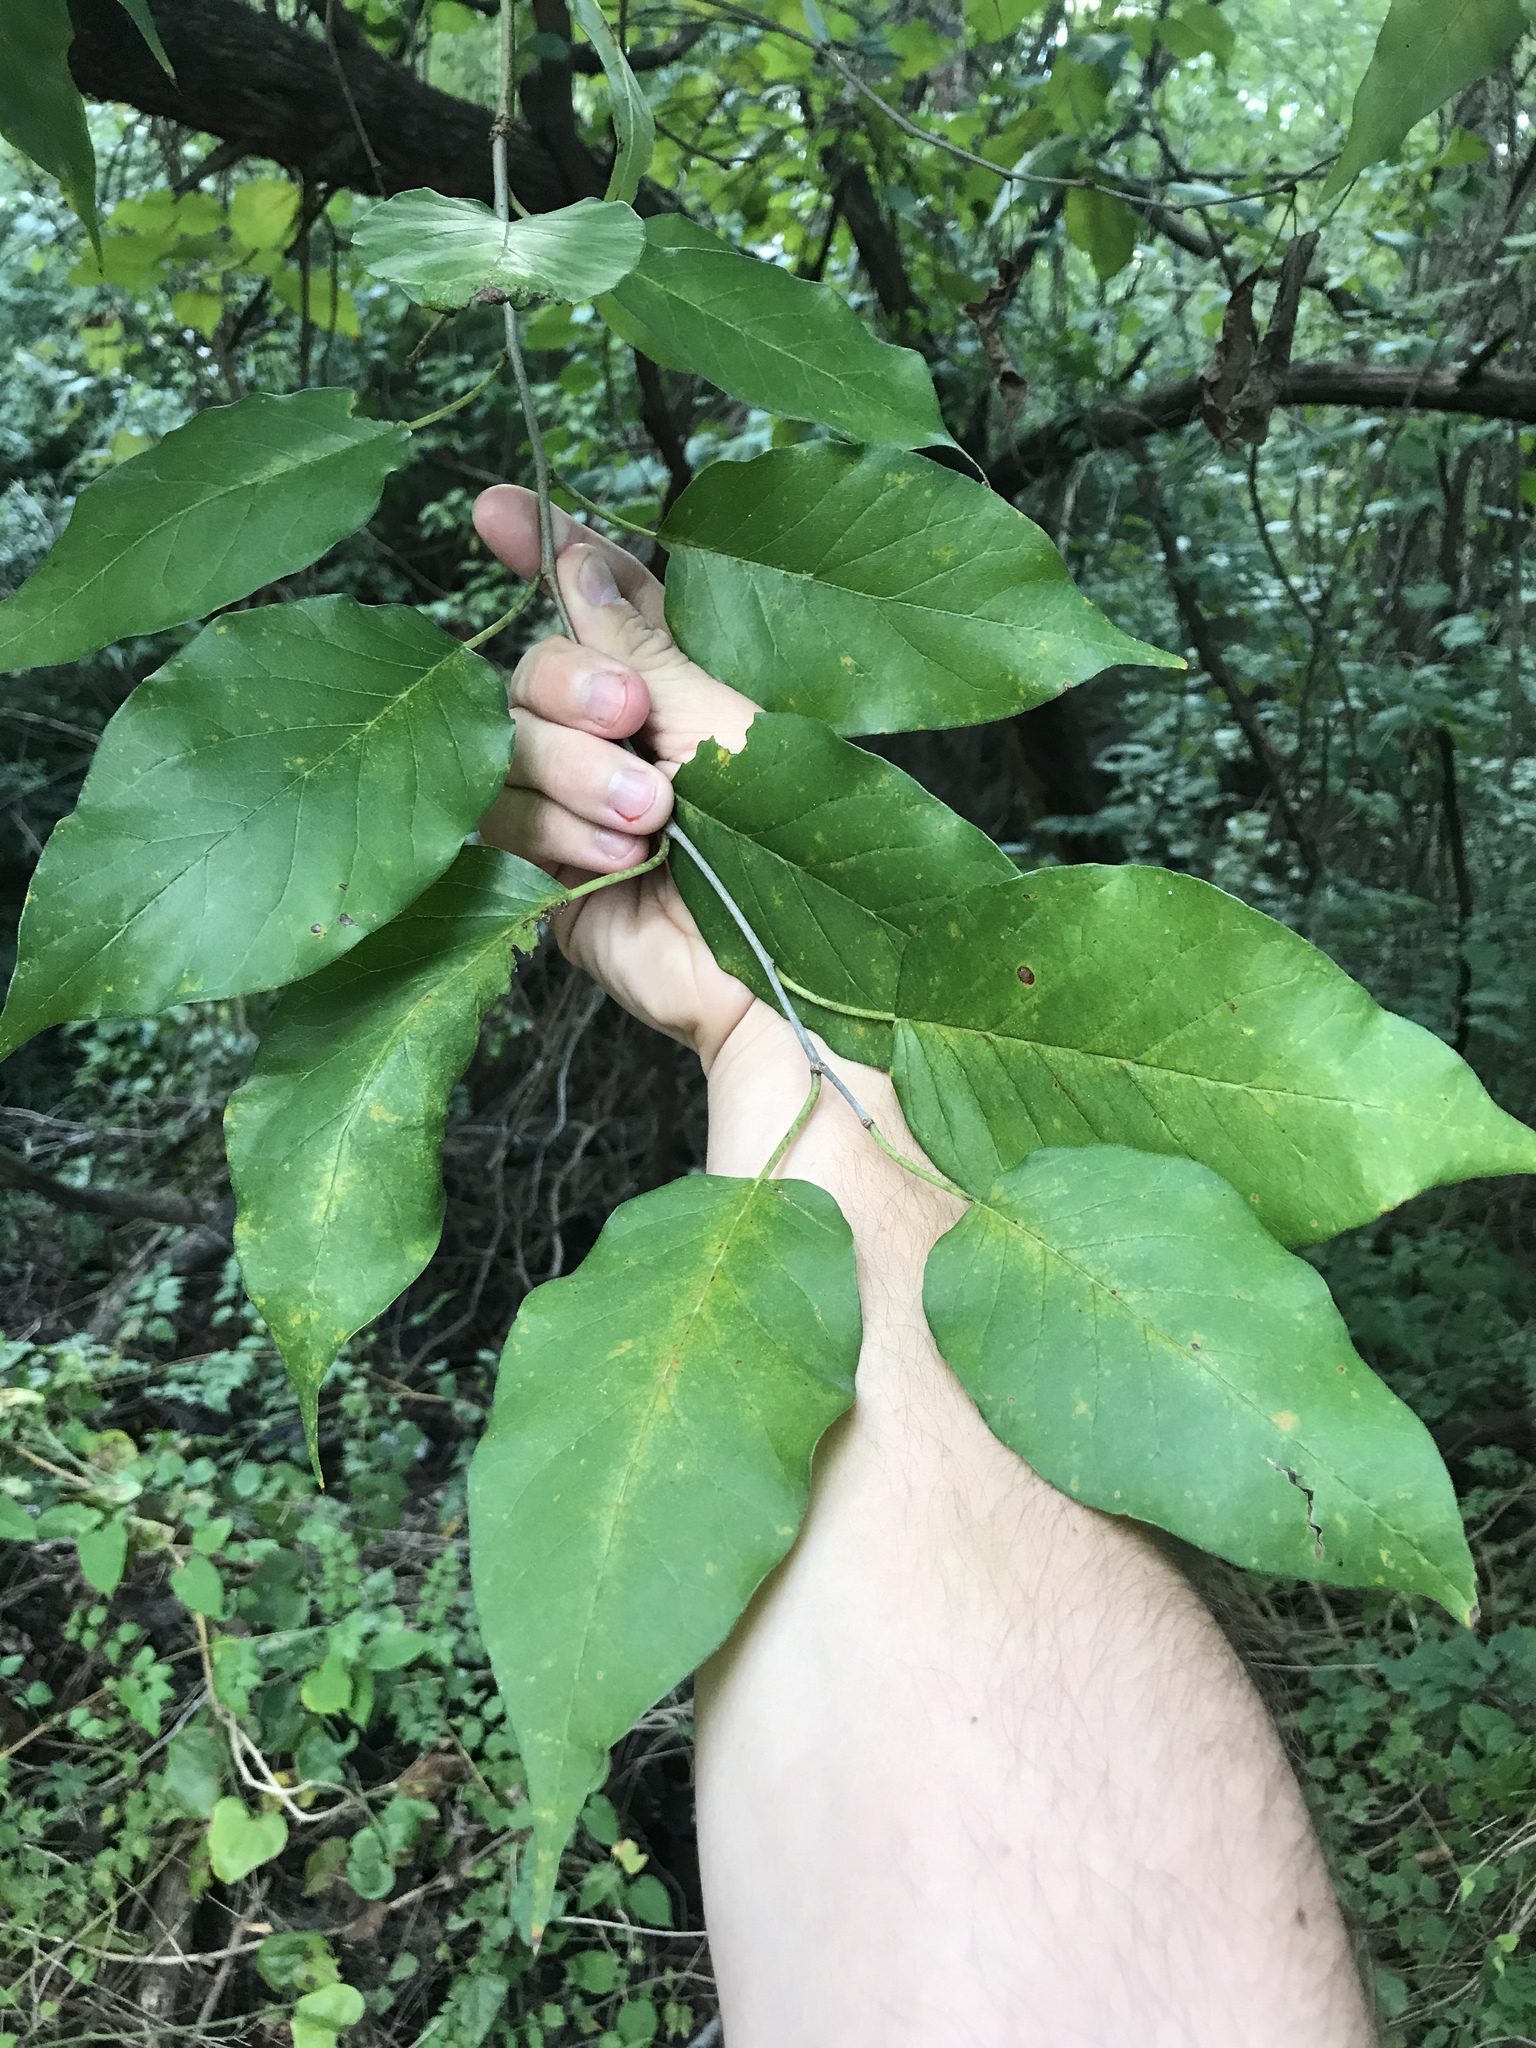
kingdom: Plantae
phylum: Tracheophyta
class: Magnoliopsida
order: Rosales
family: Moraceae
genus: Maclura
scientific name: Maclura pomifera
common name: Osage-orange
